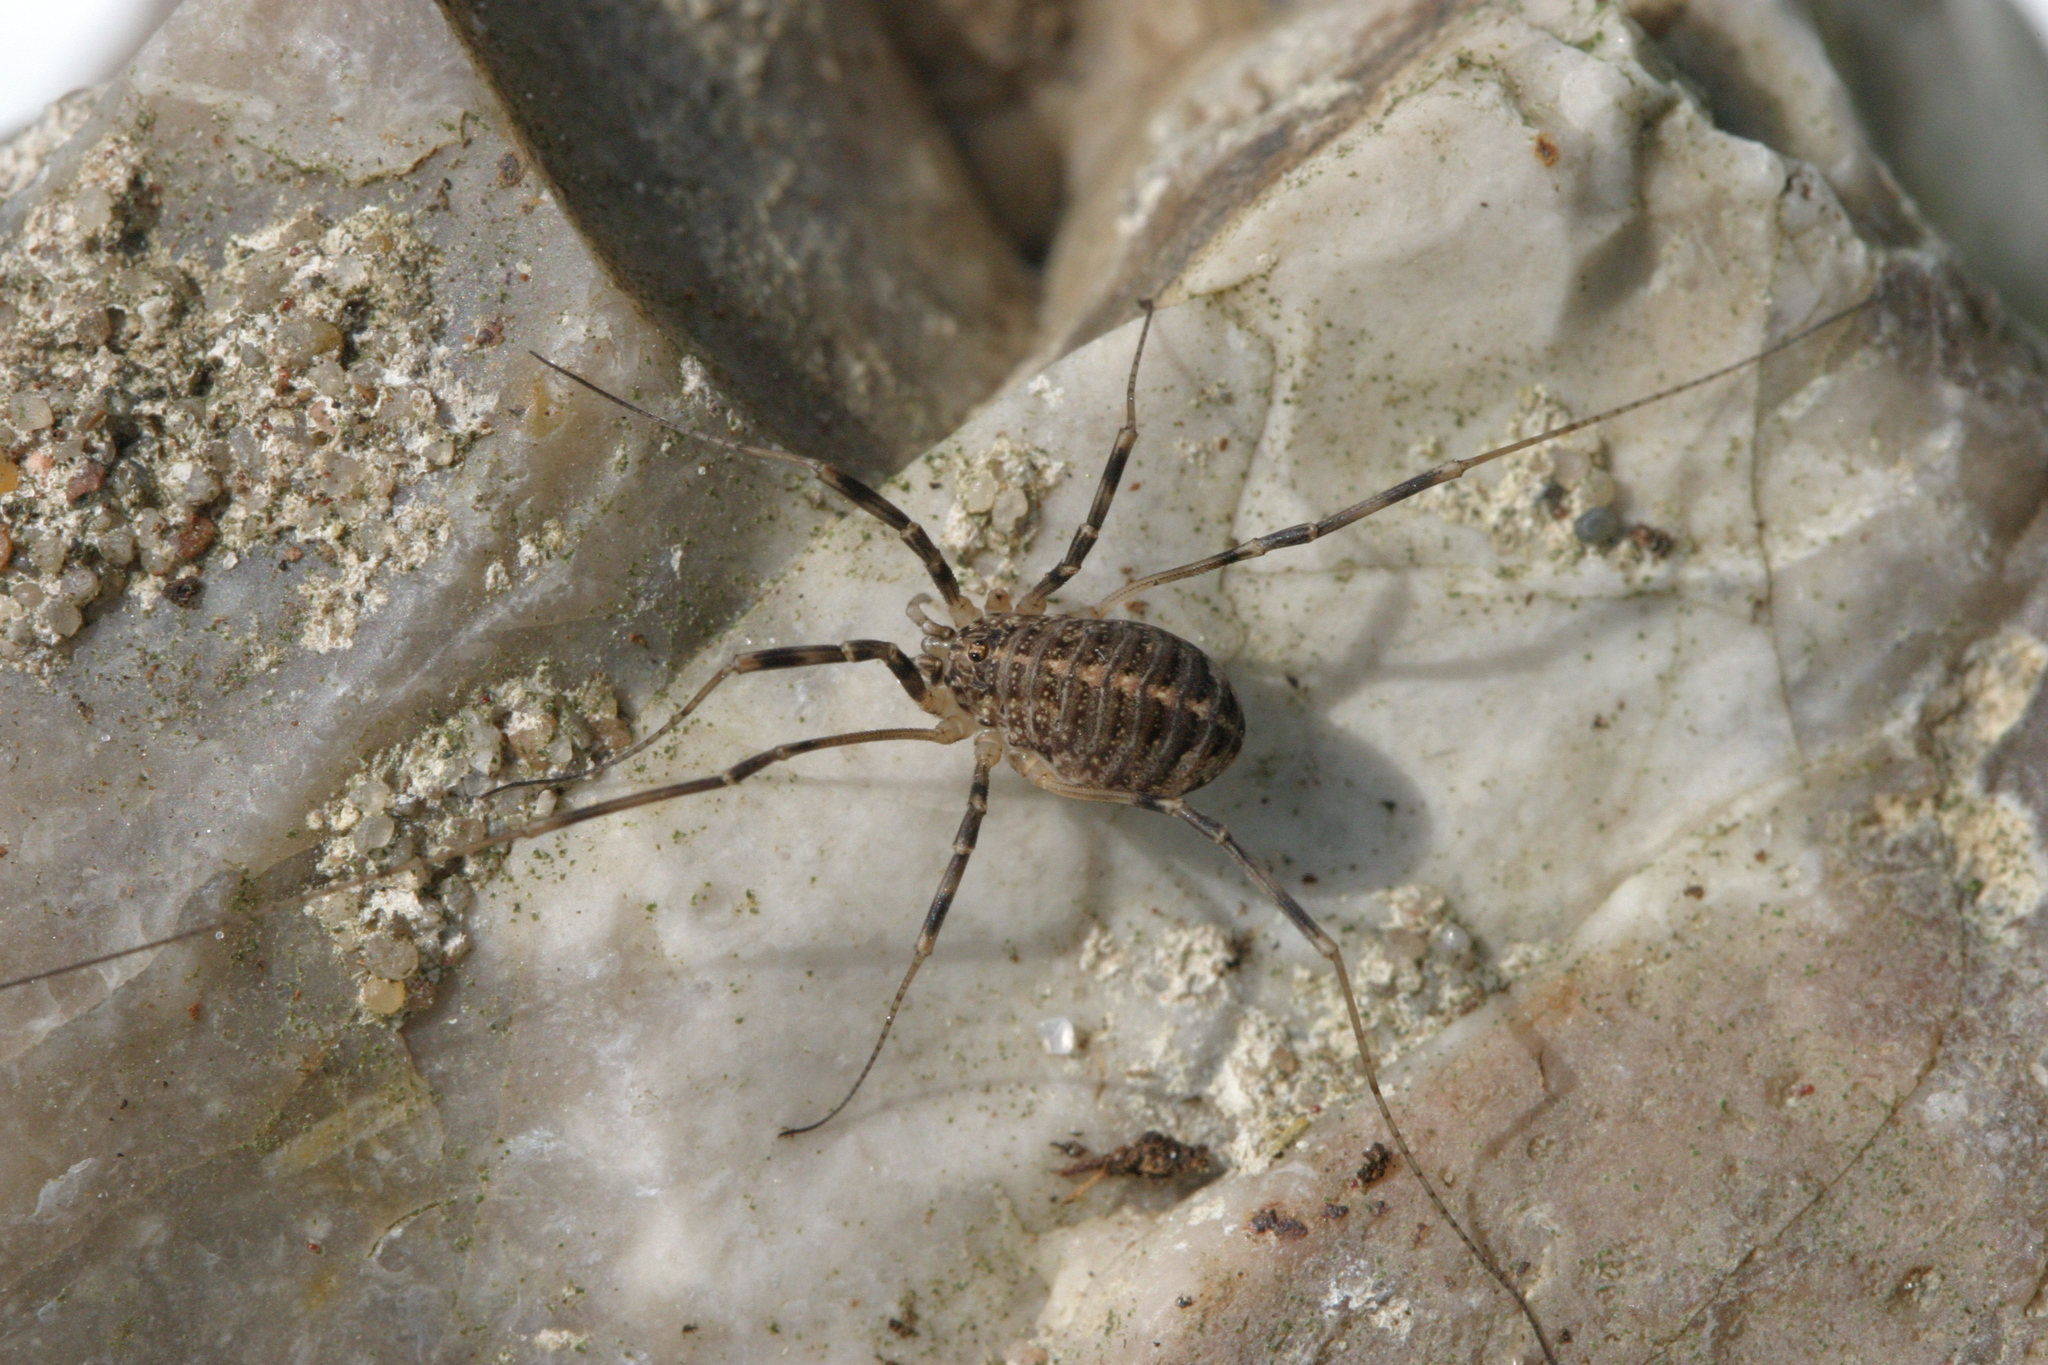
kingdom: Animalia
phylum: Arthropoda
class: Arachnida
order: Opiliones
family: Phalangiidae
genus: Opilio
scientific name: Opilio saxatilis
